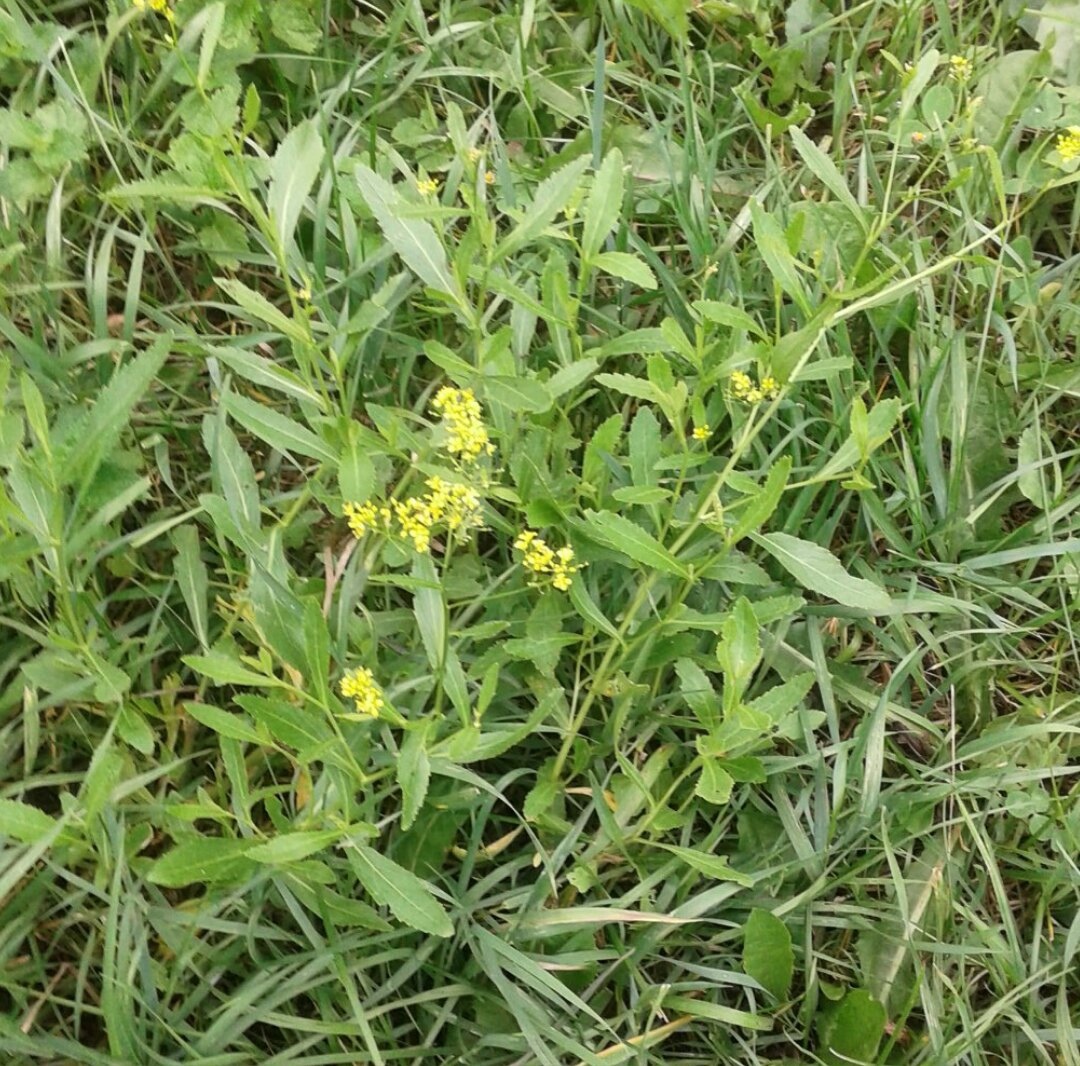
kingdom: Plantae
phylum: Tracheophyta
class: Magnoliopsida
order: Brassicales
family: Brassicaceae
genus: Rorippa
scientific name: Rorippa austriaca
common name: Austrian yellow-cress
